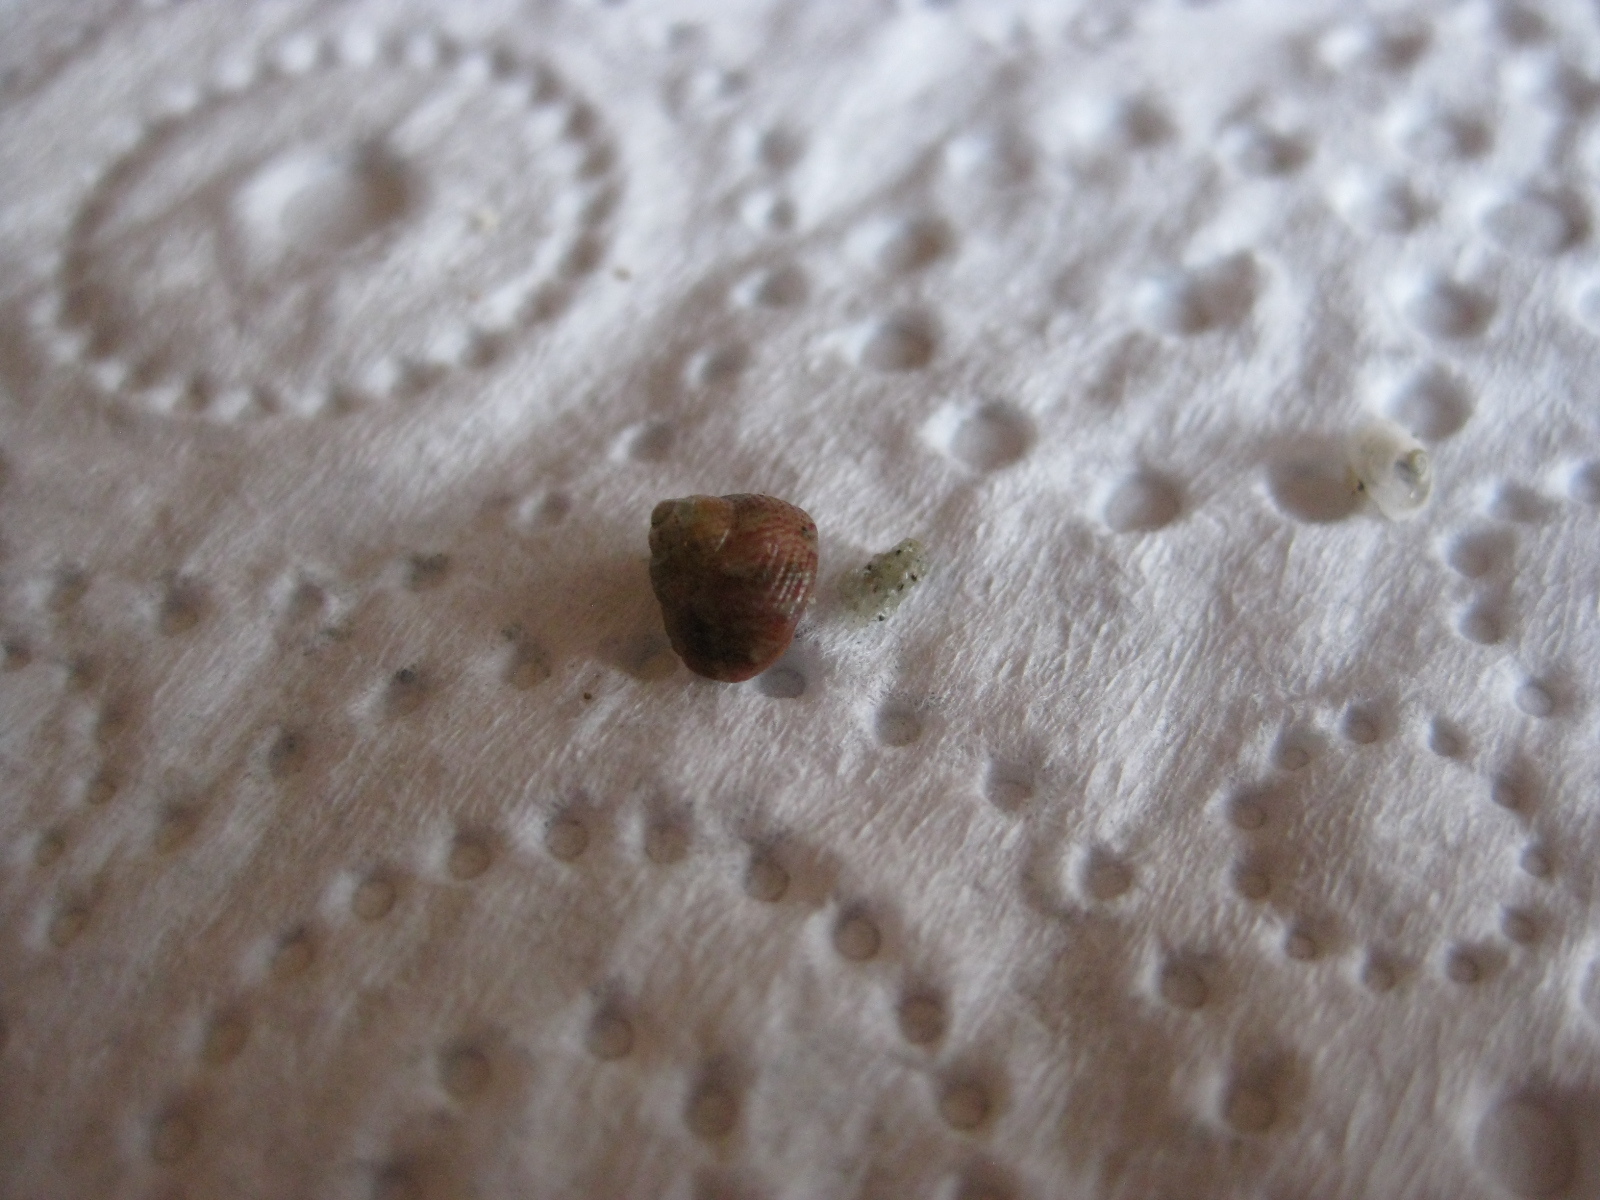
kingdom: Animalia
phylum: Mollusca
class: Gastropoda
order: Trochida
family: Trochidae
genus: Micrelenchus
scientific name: Micrelenchus sanguineus
